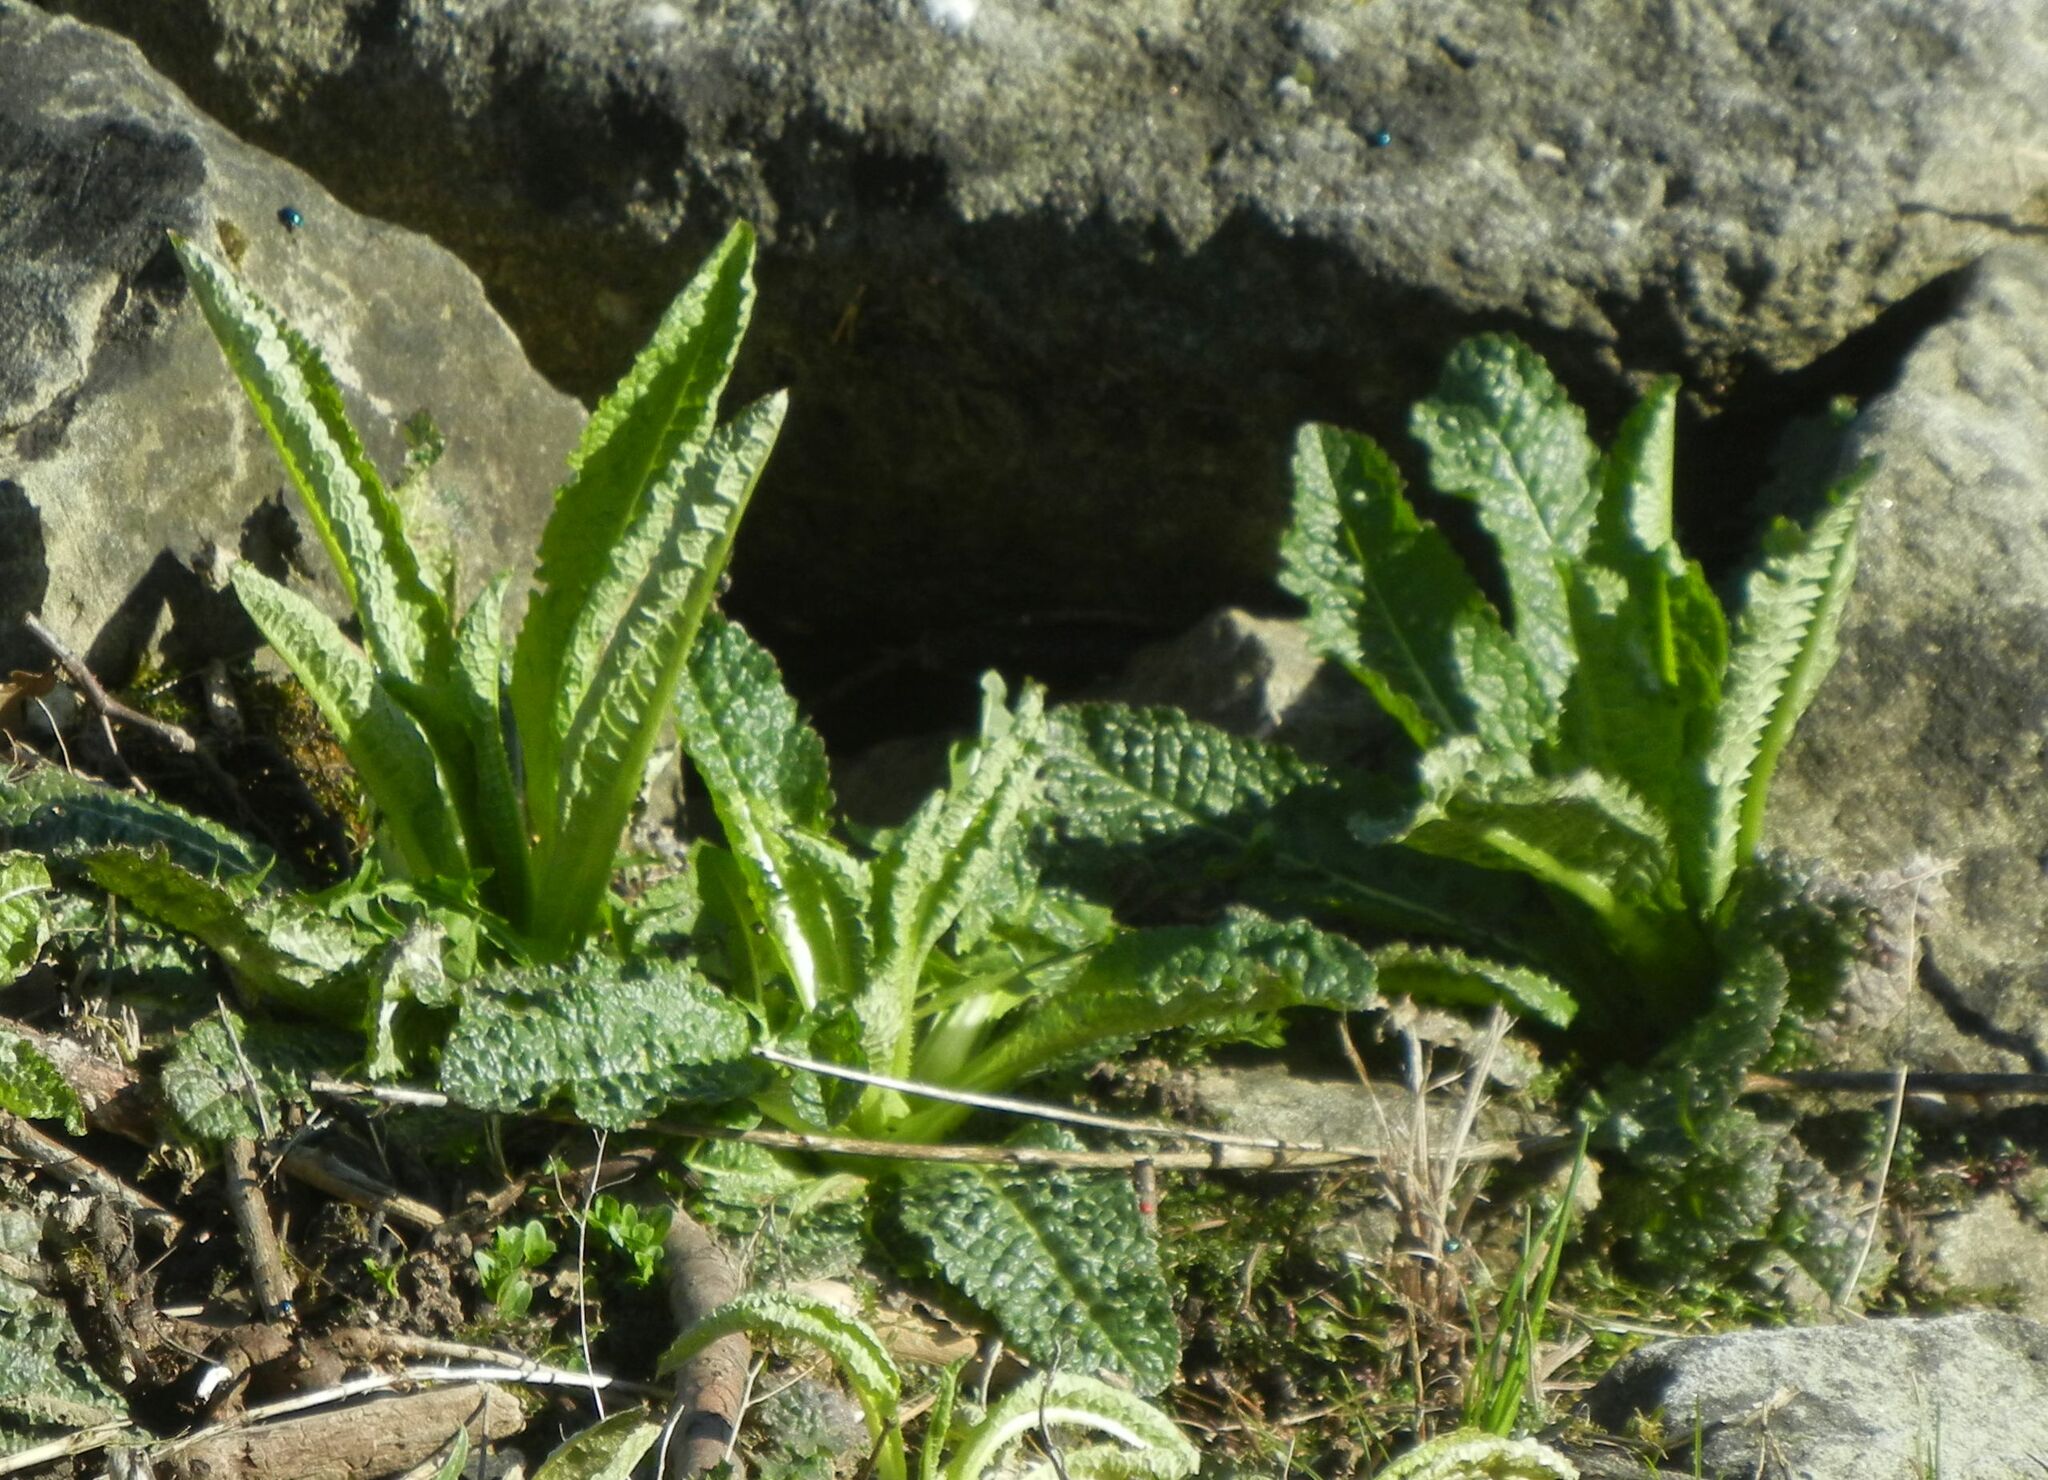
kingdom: Plantae
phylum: Tracheophyta
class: Magnoliopsida
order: Dipsacales
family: Caprifoliaceae
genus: Dipsacus
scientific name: Dipsacus fullonum
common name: Teasel
